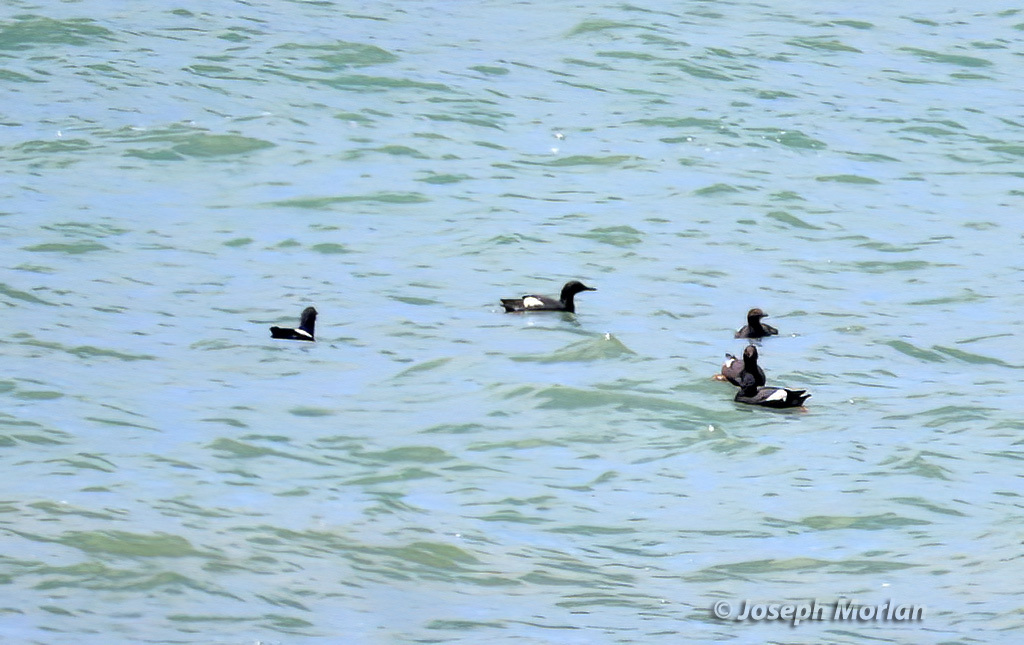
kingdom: Animalia
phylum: Chordata
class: Aves
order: Charadriiformes
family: Alcidae
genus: Cepphus
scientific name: Cepphus columba
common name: Pigeon guillemot
